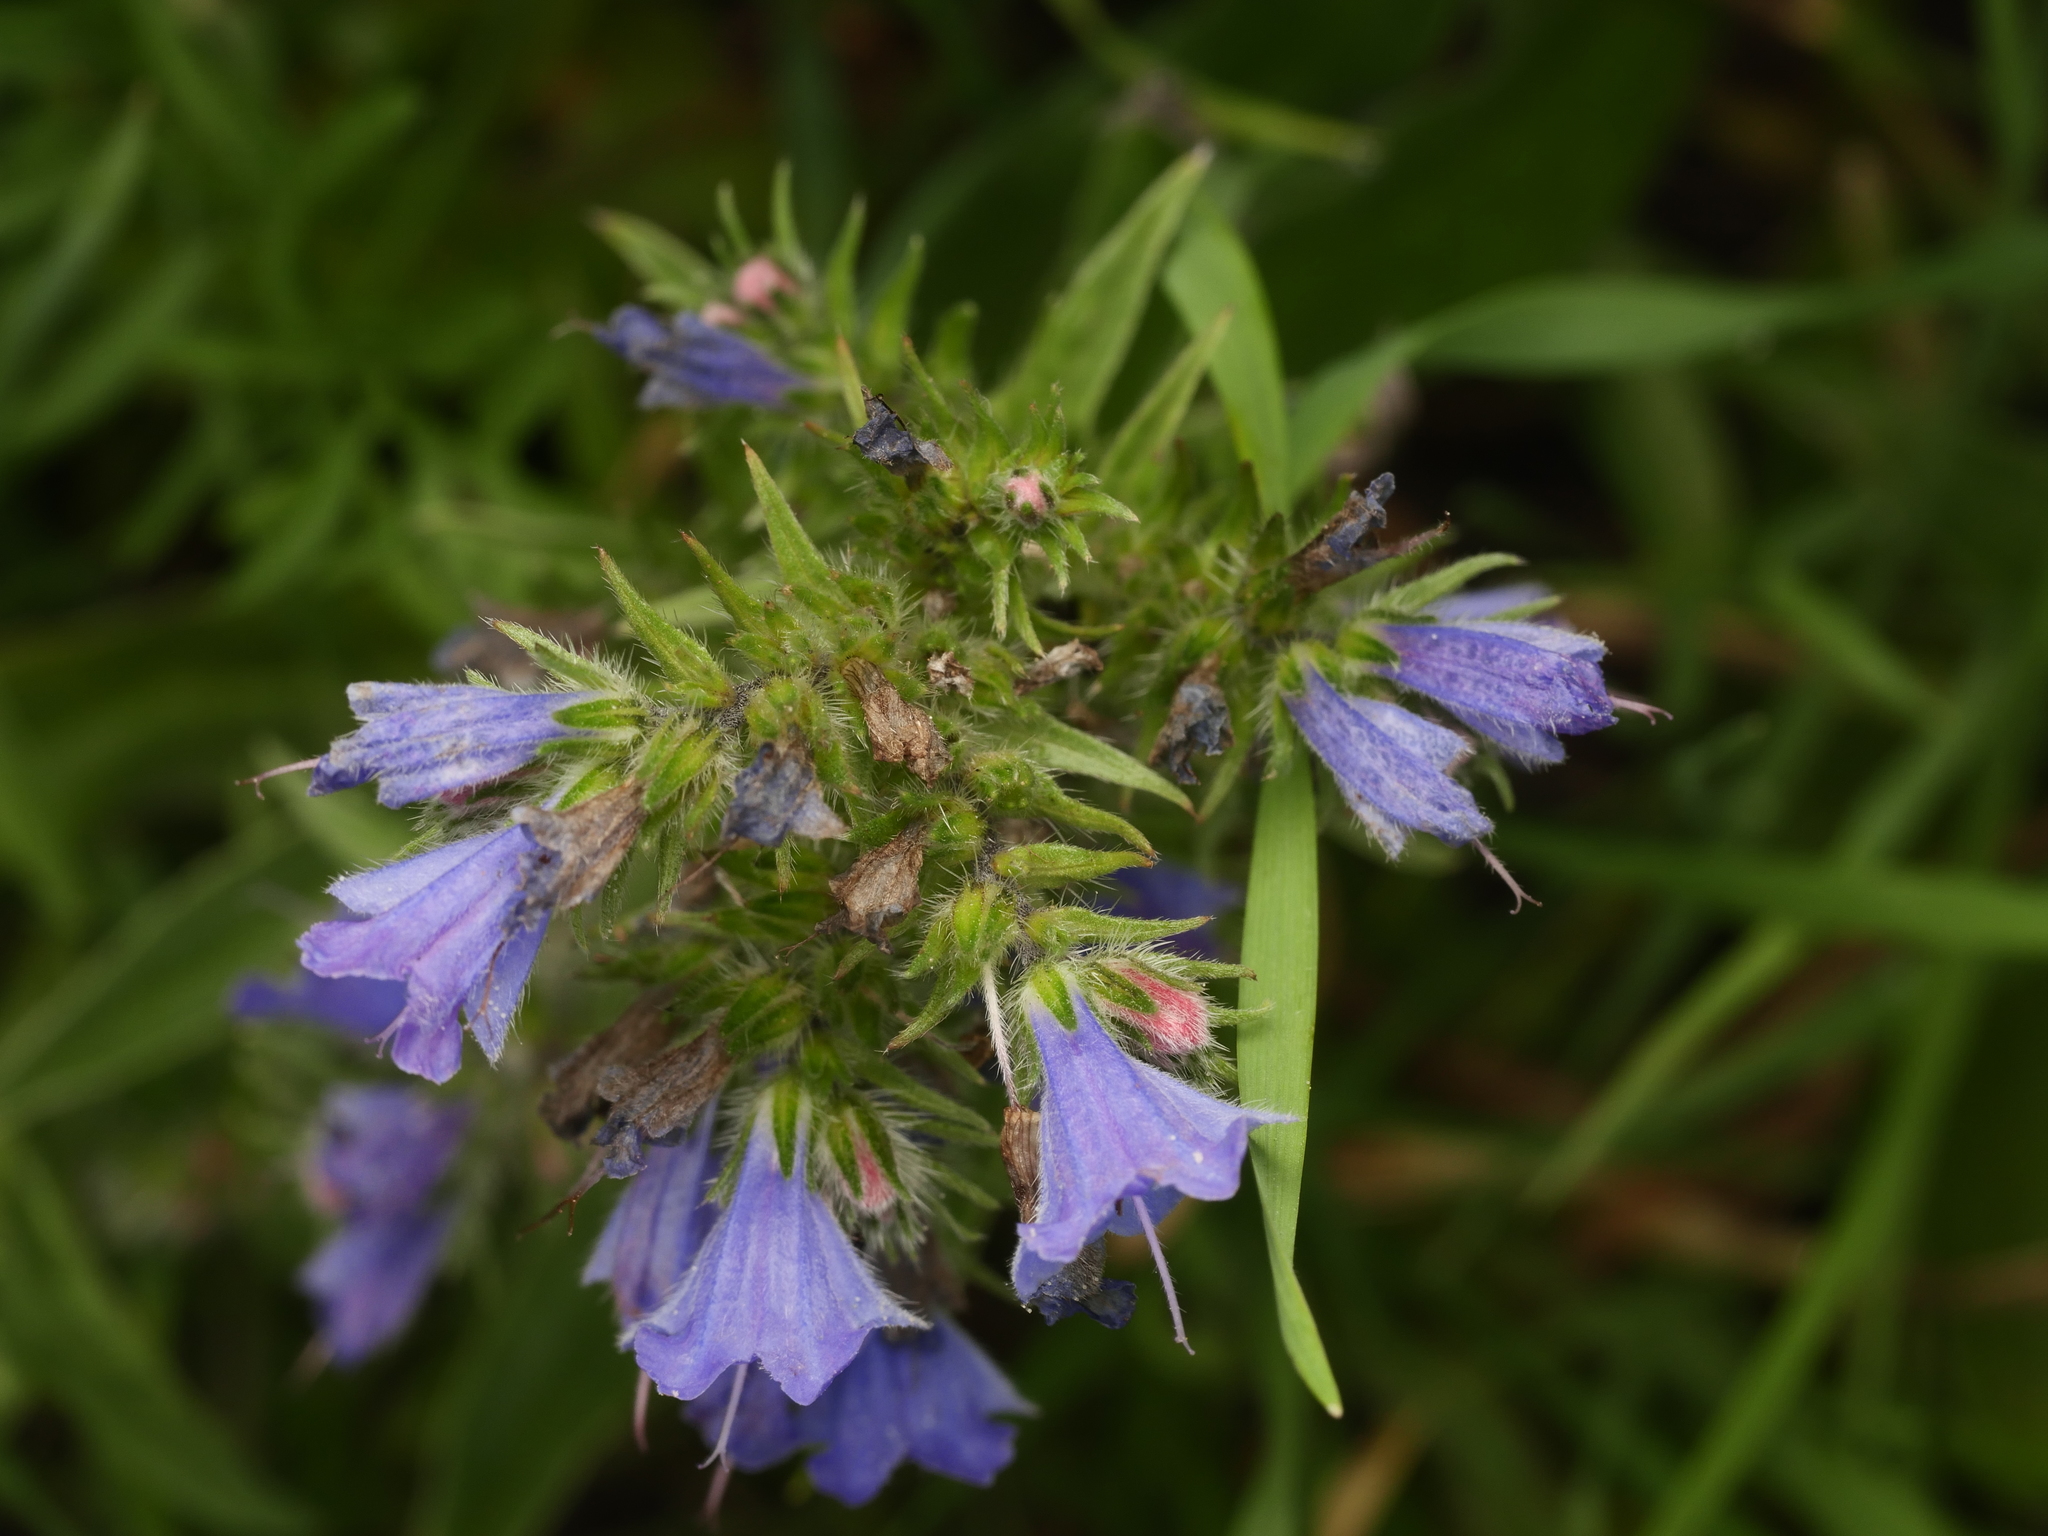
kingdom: Plantae
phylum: Tracheophyta
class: Magnoliopsida
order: Boraginales
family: Boraginaceae
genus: Echium
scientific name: Echium vulgare
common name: Common viper's bugloss
